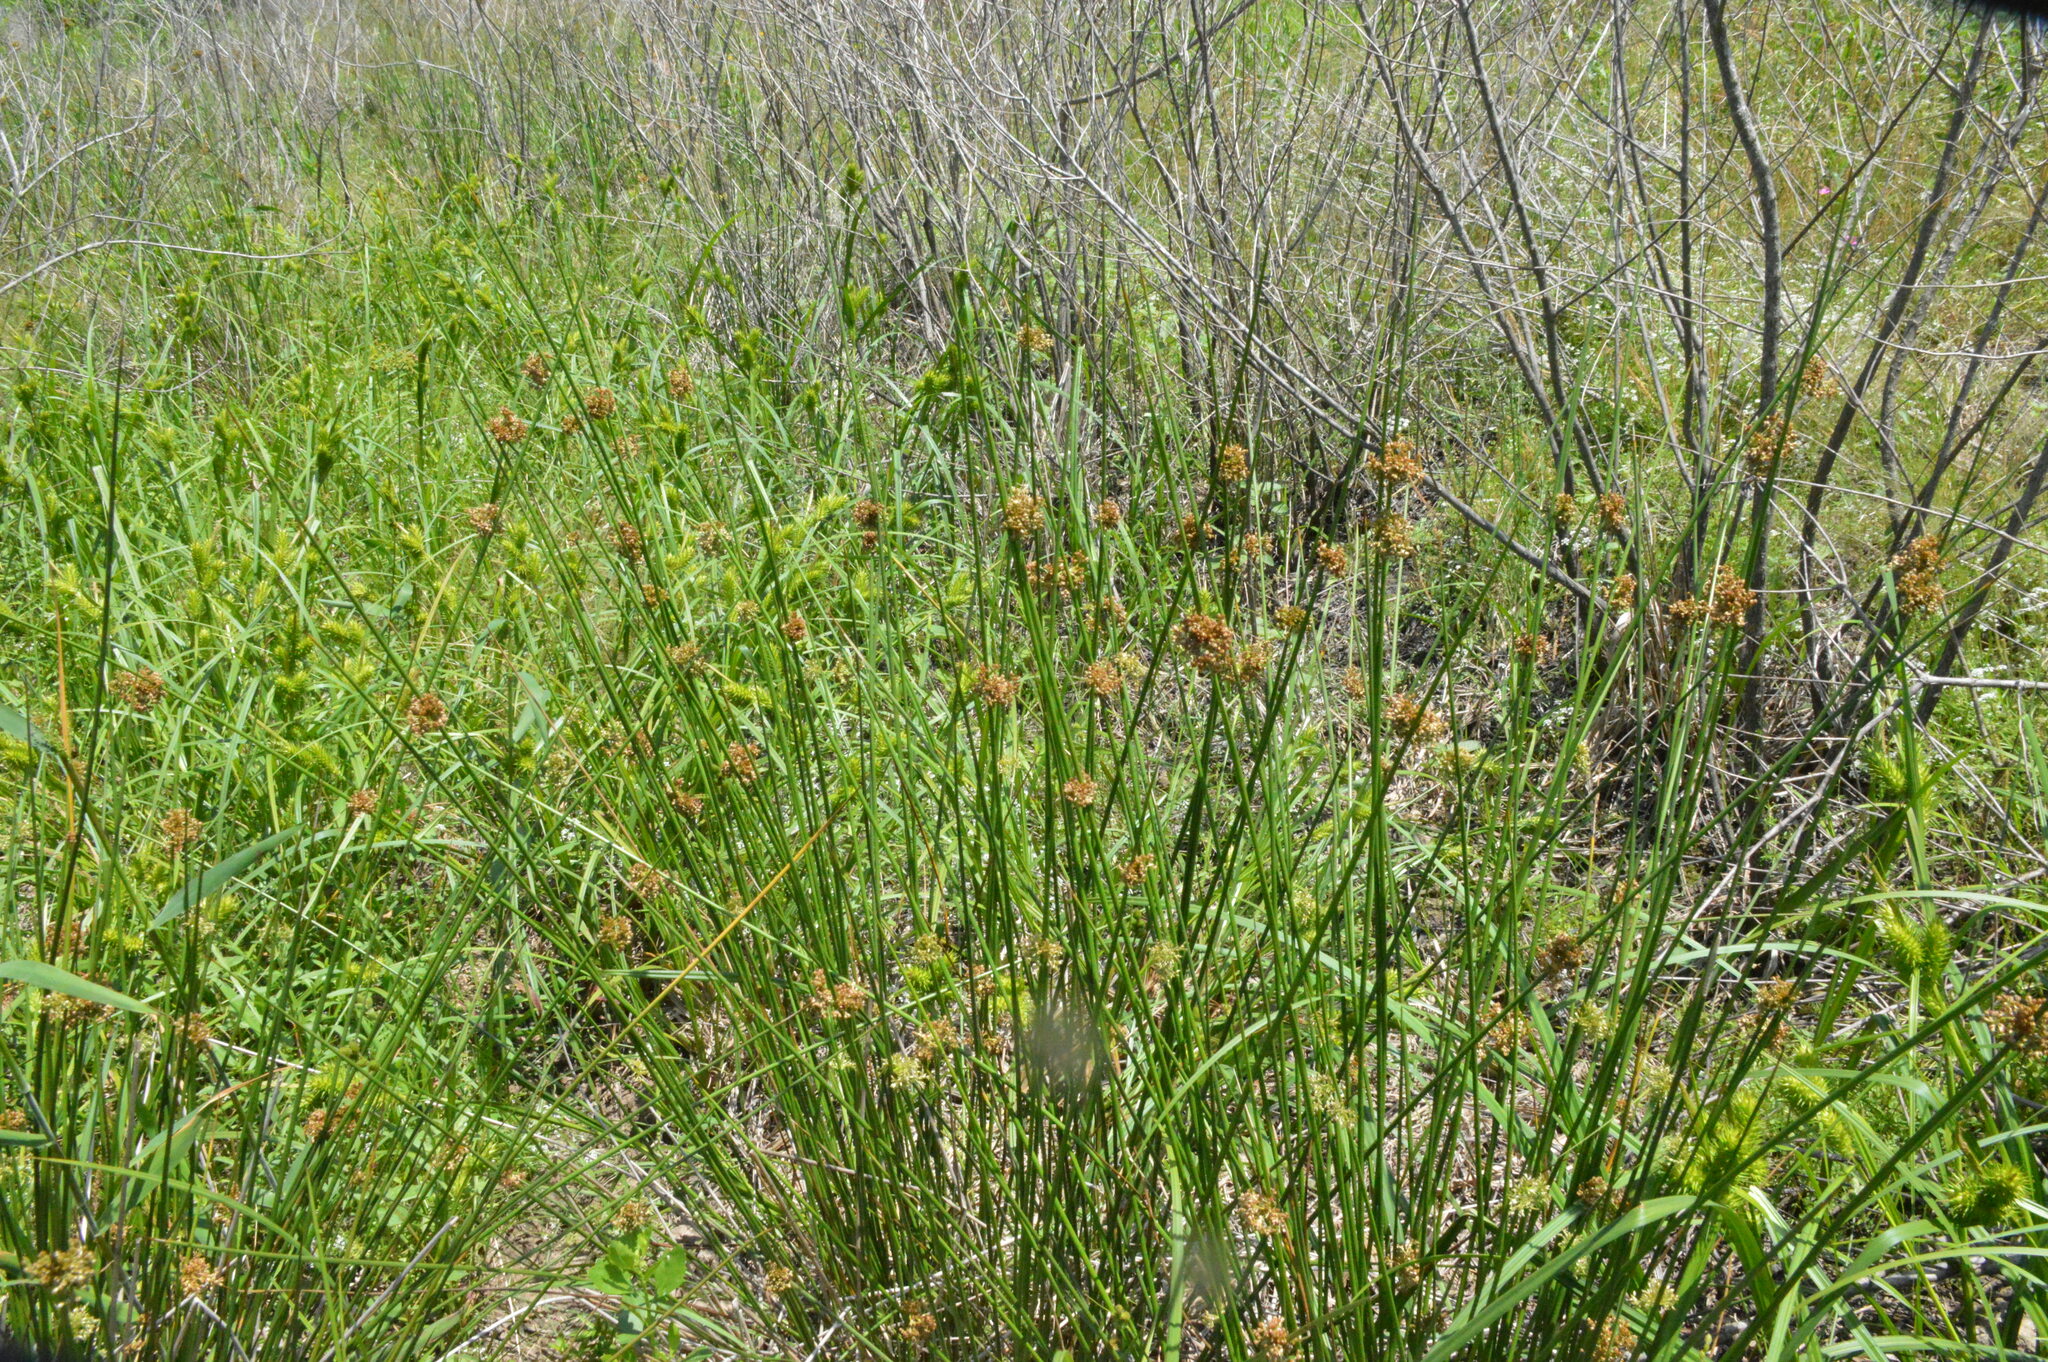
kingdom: Plantae
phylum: Tracheophyta
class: Liliopsida
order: Poales
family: Juncaceae
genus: Juncus
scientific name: Juncus effusus
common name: Soft rush
